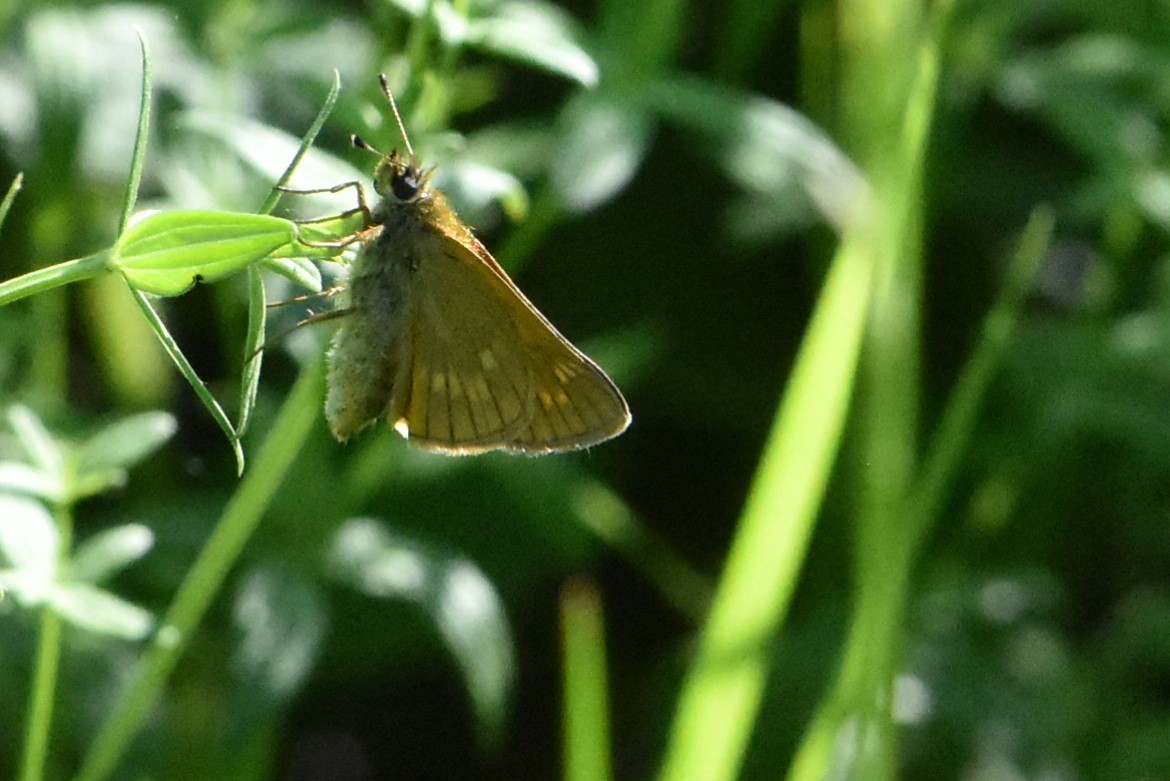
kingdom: Animalia
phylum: Arthropoda
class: Insecta
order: Lepidoptera
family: Hesperiidae
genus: Ochlodes
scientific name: Ochlodes venata
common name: Large skipper
